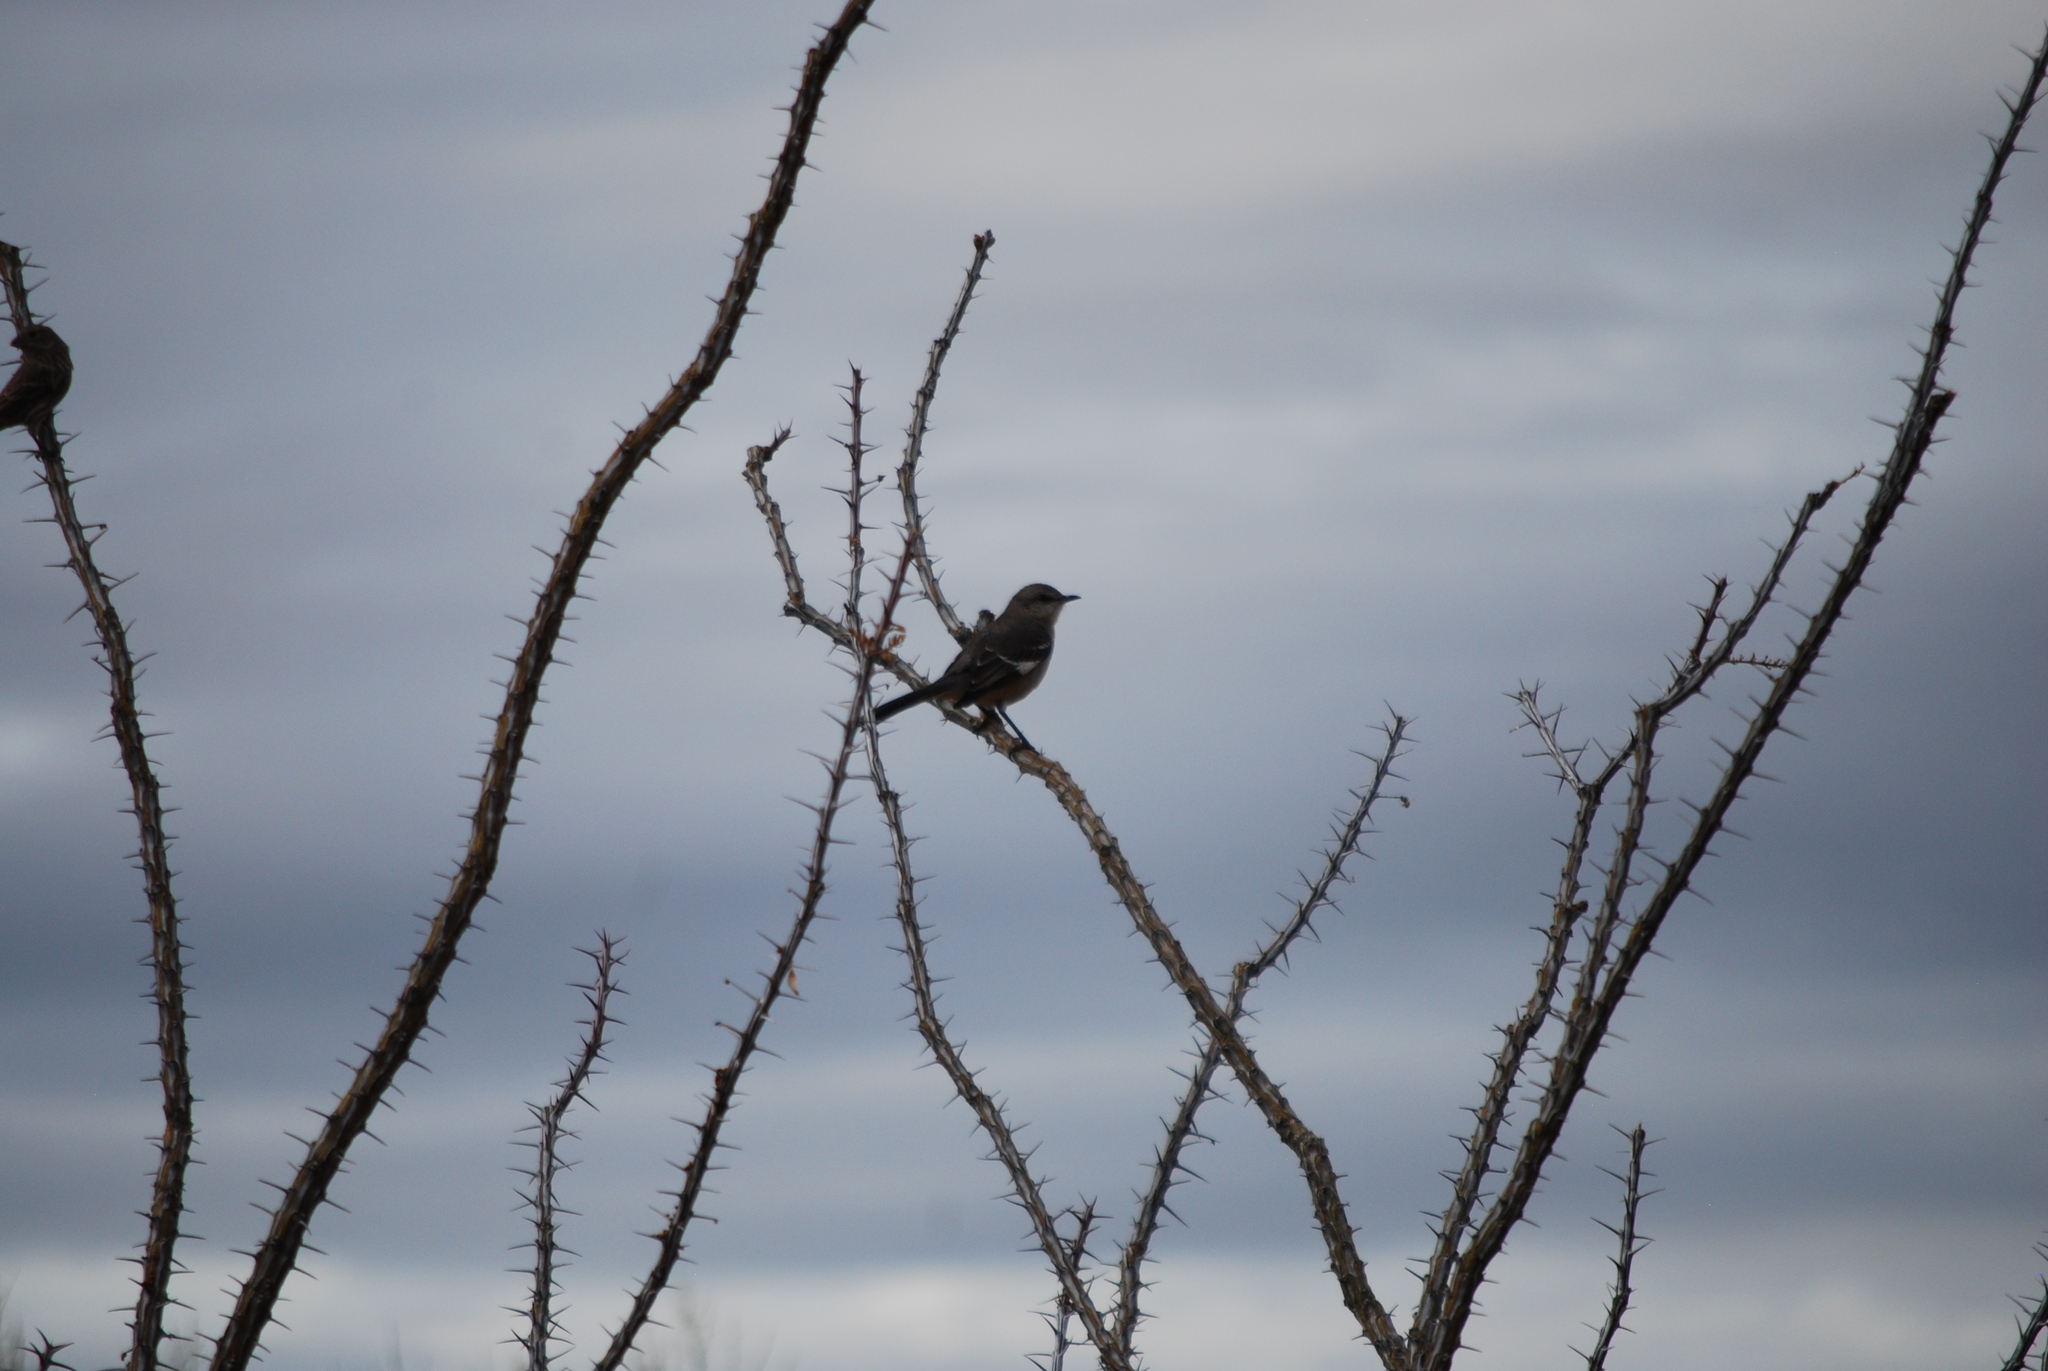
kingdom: Animalia
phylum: Chordata
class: Aves
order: Passeriformes
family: Mimidae
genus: Mimus
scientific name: Mimus polyglottos
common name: Northern mockingbird
